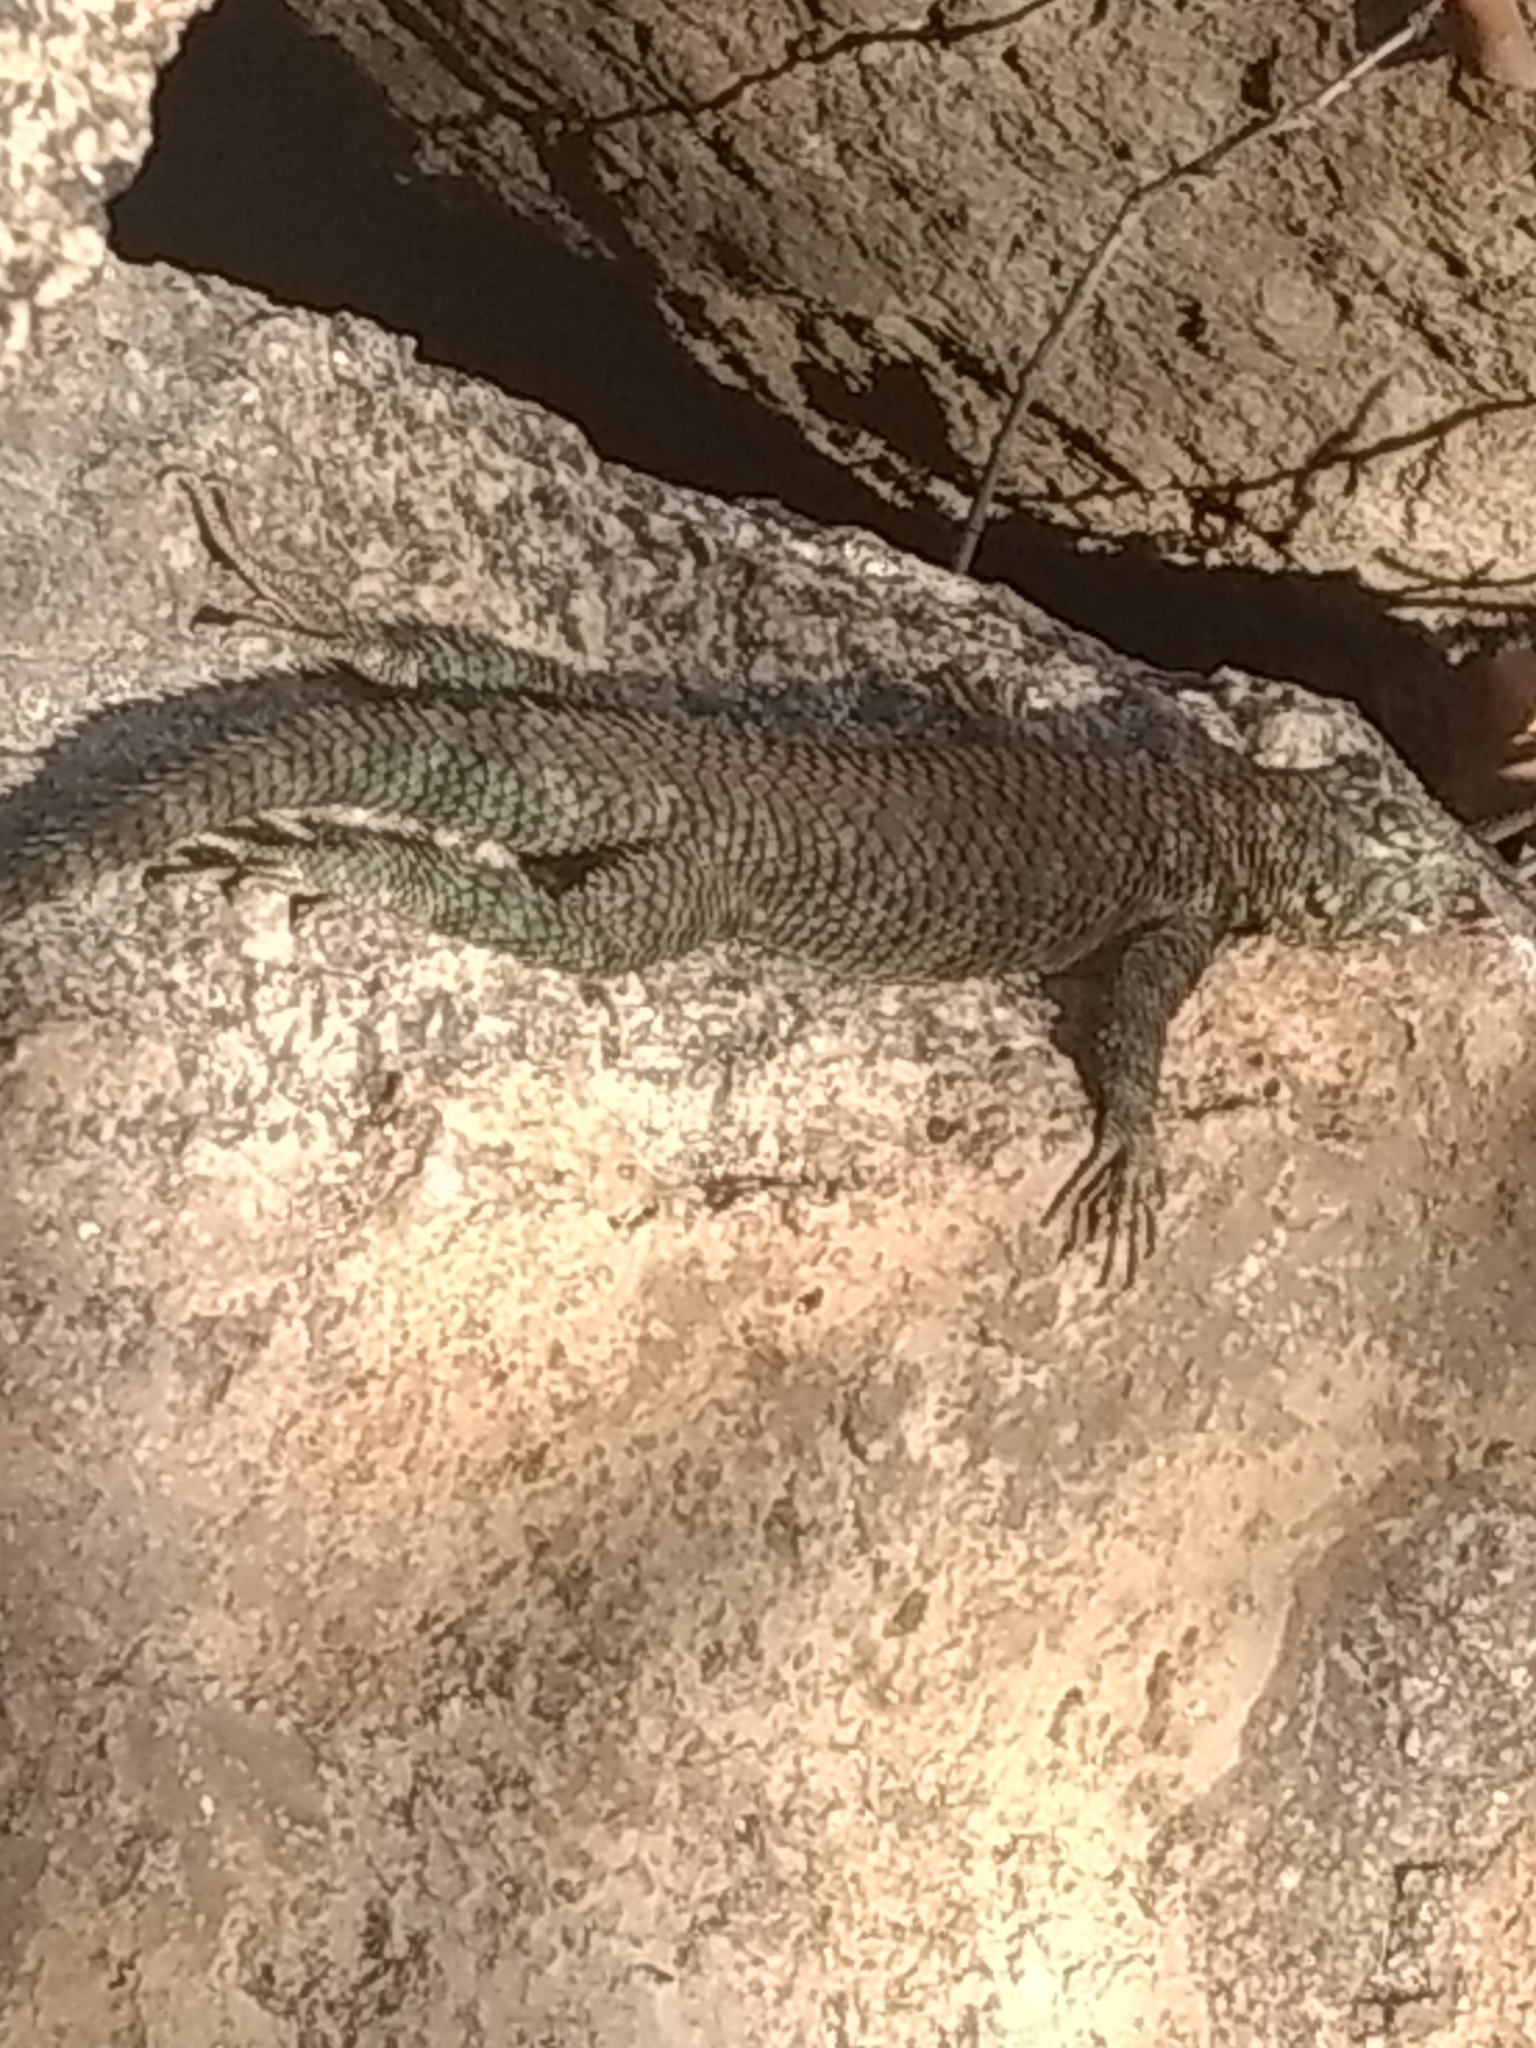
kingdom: Animalia
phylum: Chordata
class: Squamata
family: Phrynosomatidae
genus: Sceloporus
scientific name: Sceloporus orcutti
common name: Granite spiny lizard
